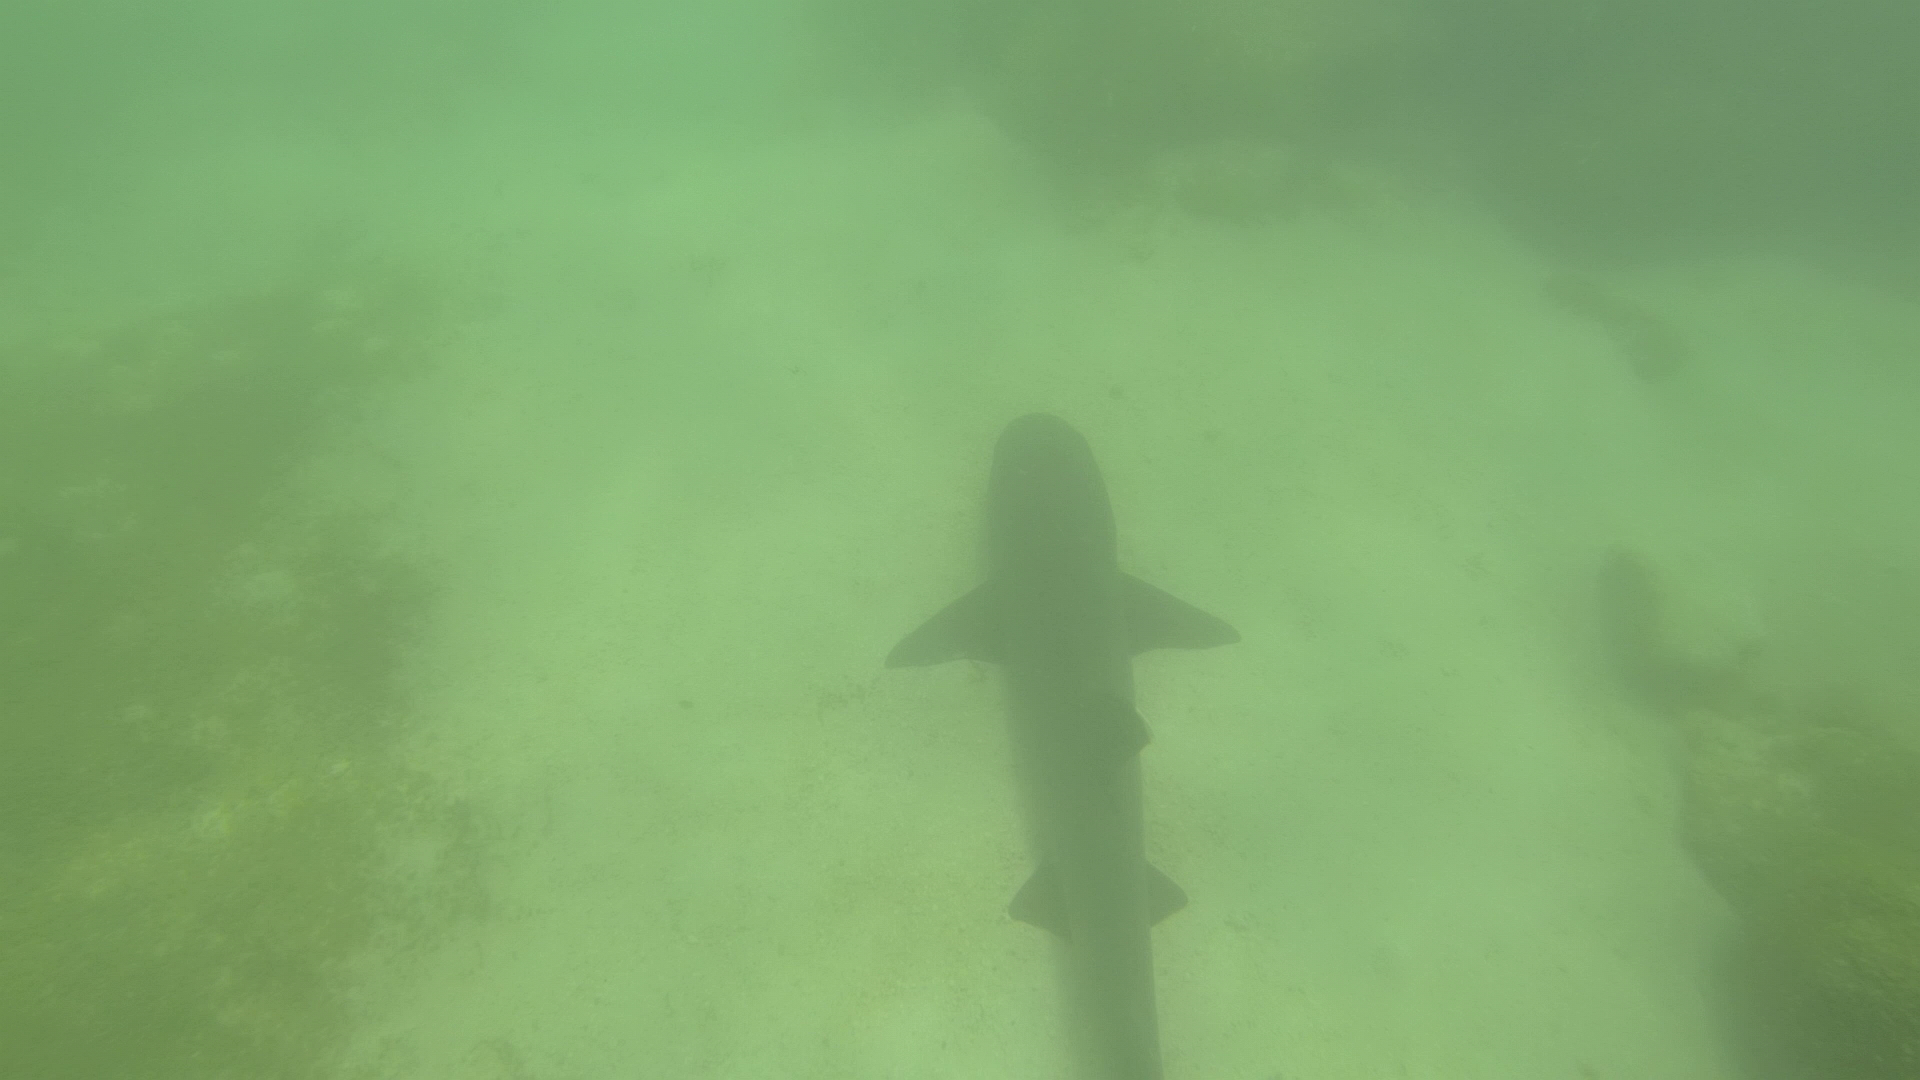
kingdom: Animalia
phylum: Chordata
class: Elasmobranchii
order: Carcharhiniformes
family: Carcharhinidae
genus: Triaenodon
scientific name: Triaenodon obesus
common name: Whitetip reef shark
